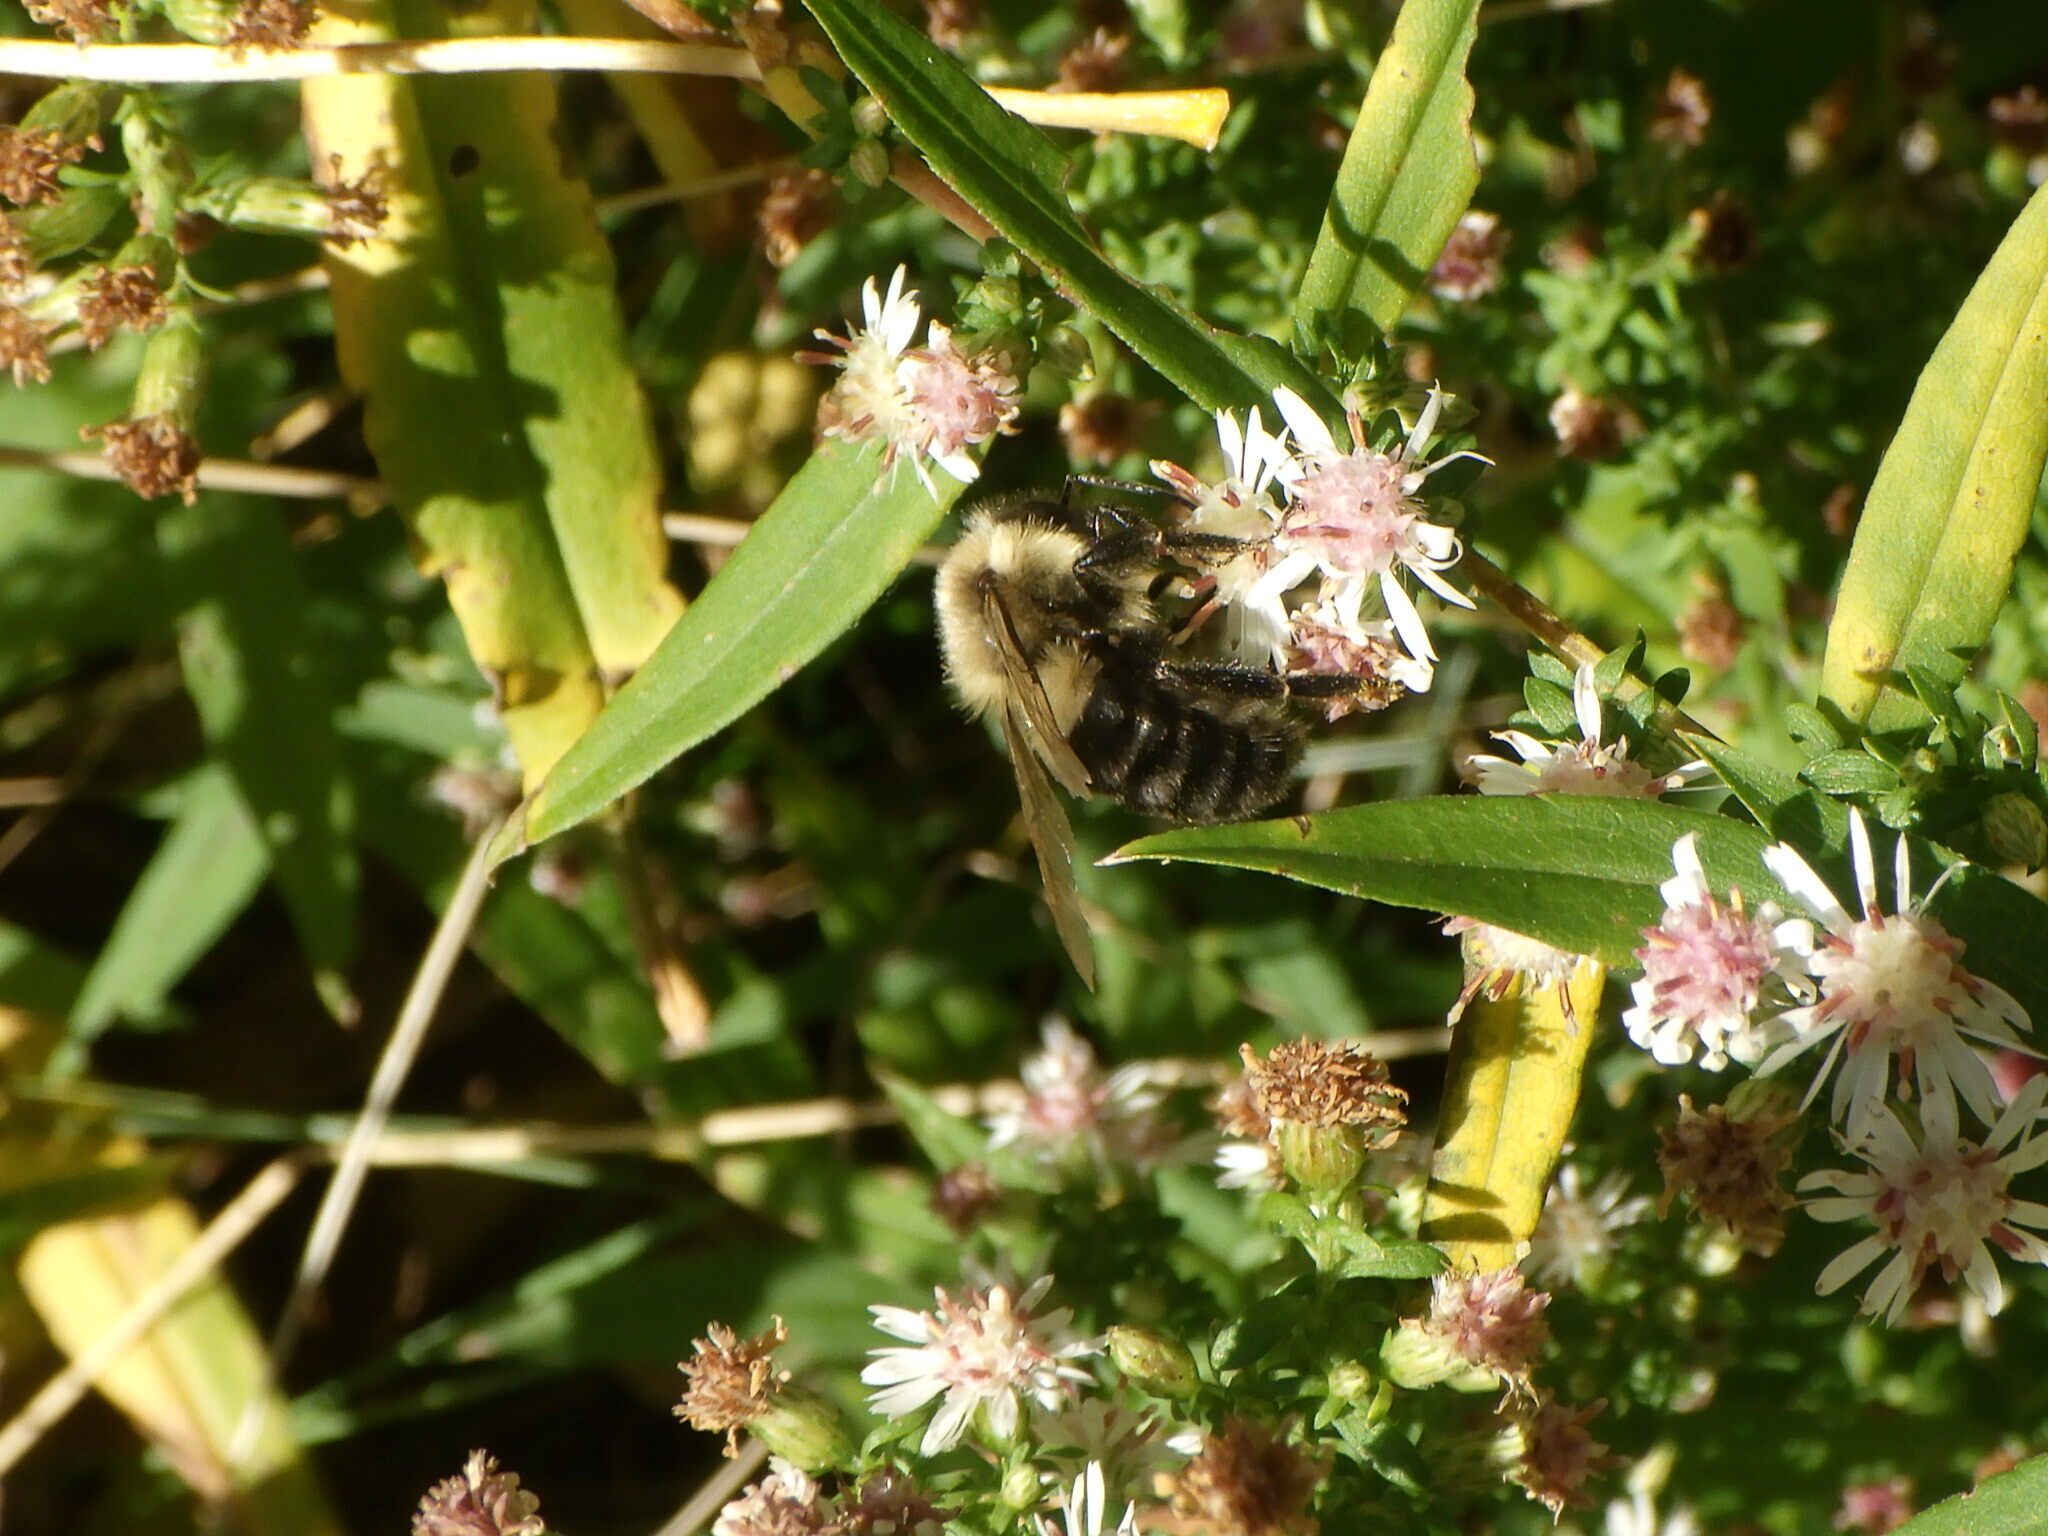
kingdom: Animalia
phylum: Arthropoda
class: Insecta
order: Hymenoptera
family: Apidae
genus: Bombus
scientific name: Bombus impatiens
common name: Common eastern bumble bee
